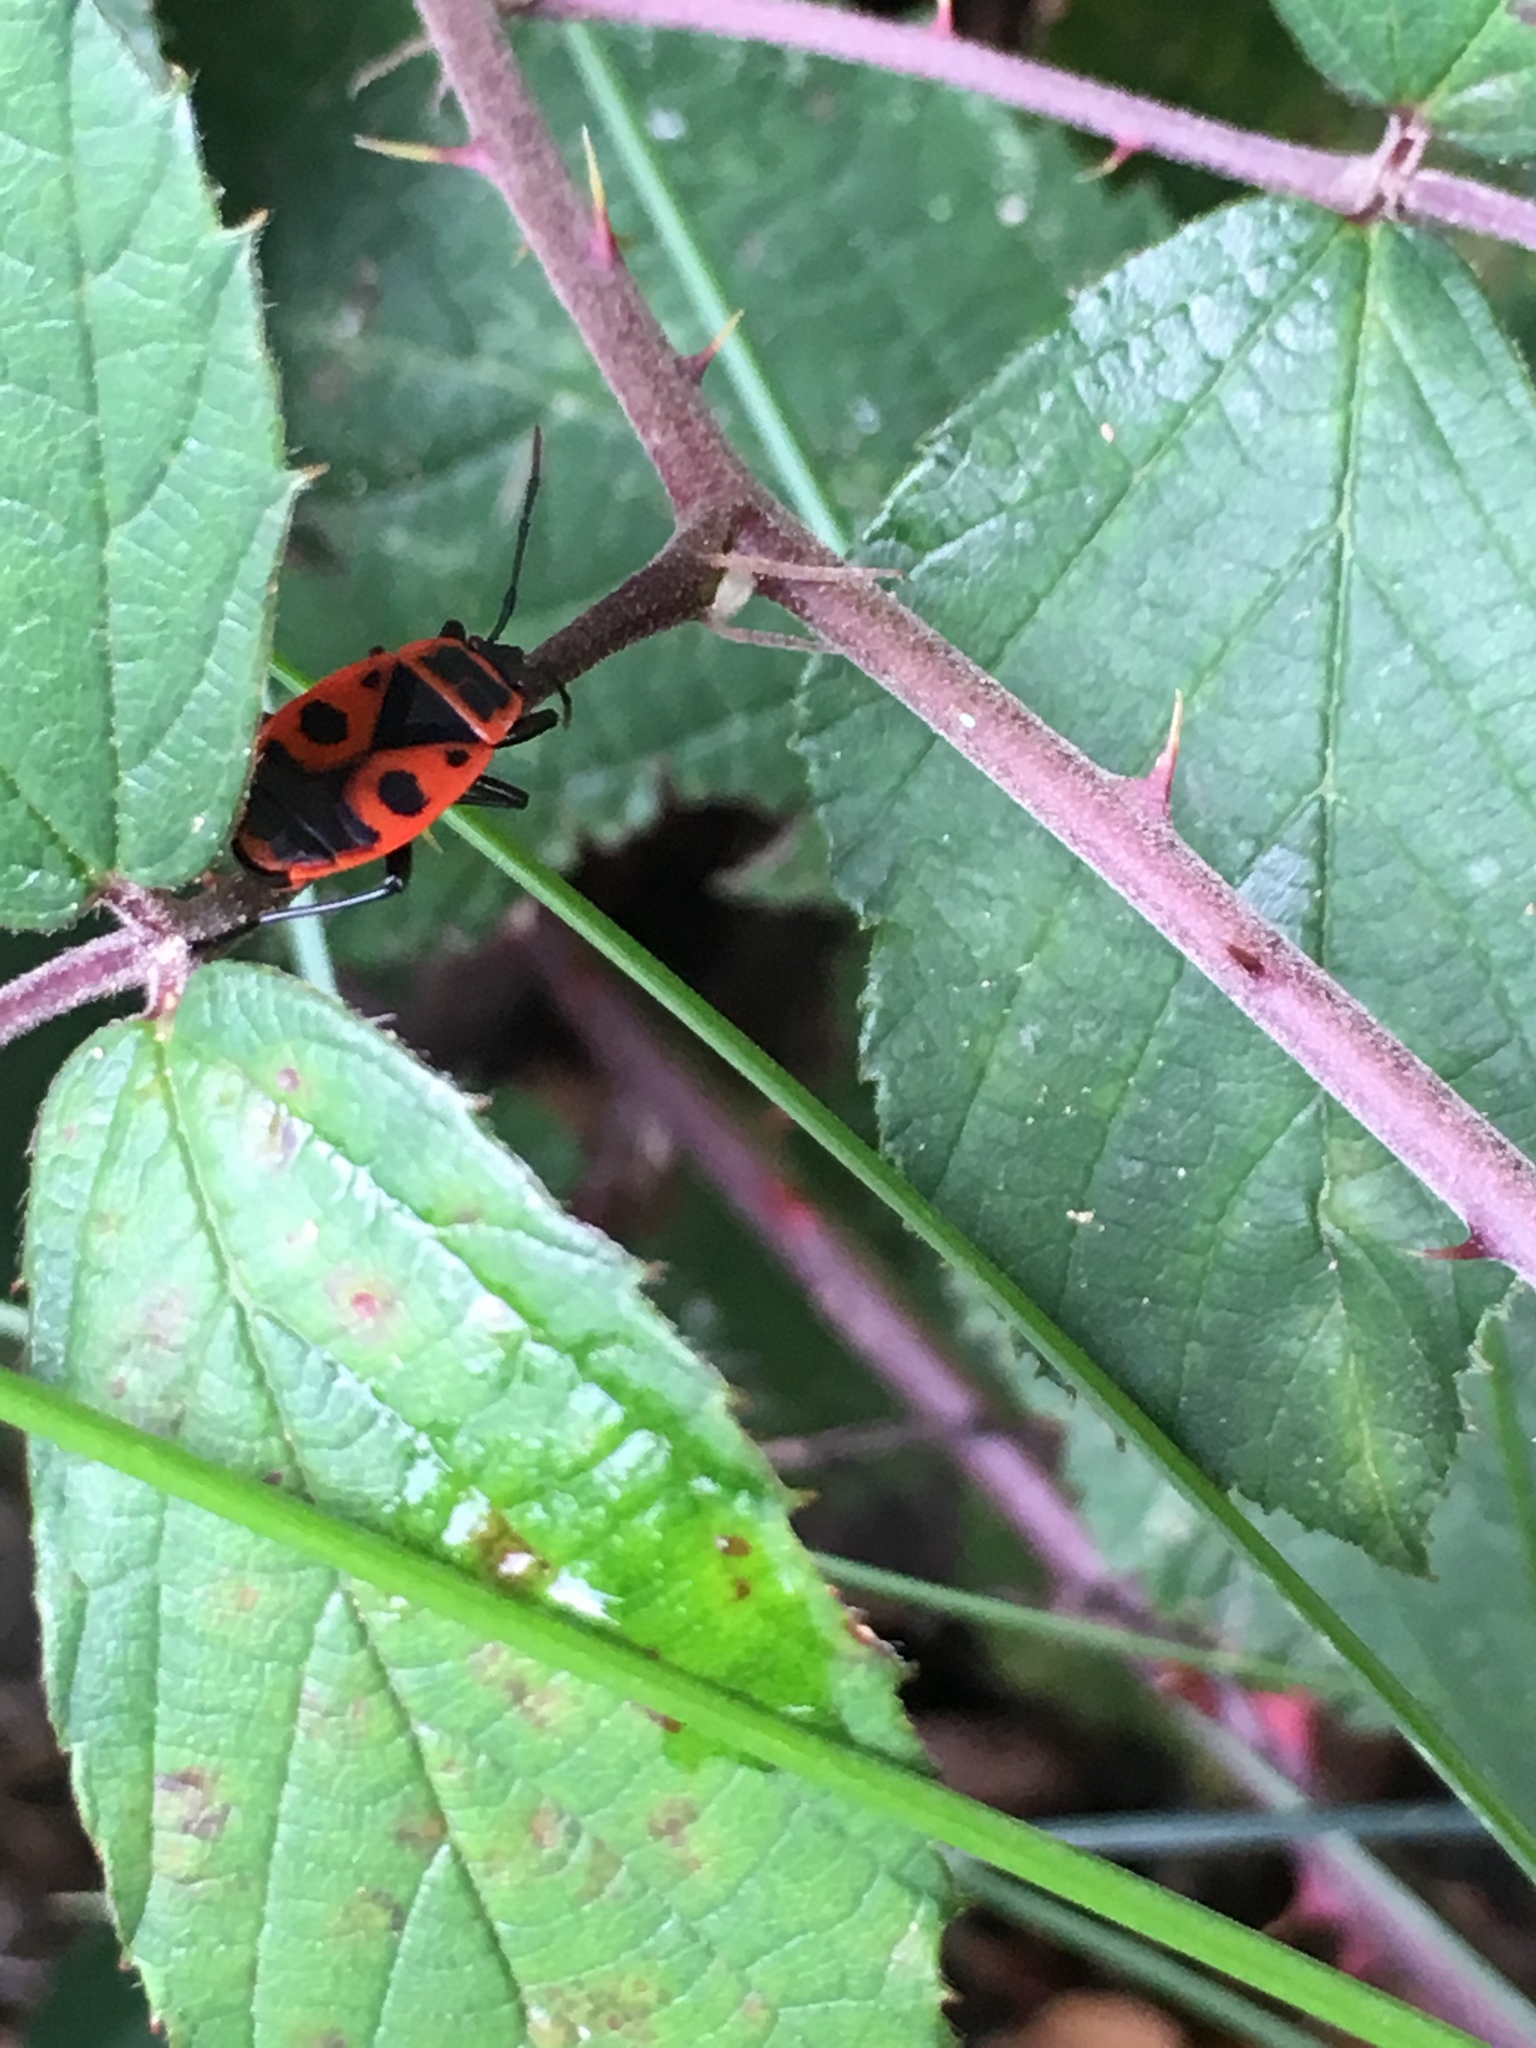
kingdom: Animalia
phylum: Arthropoda
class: Insecta
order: Hemiptera
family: Pyrrhocoridae
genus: Pyrrhocoris
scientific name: Pyrrhocoris apterus
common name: Firebug
